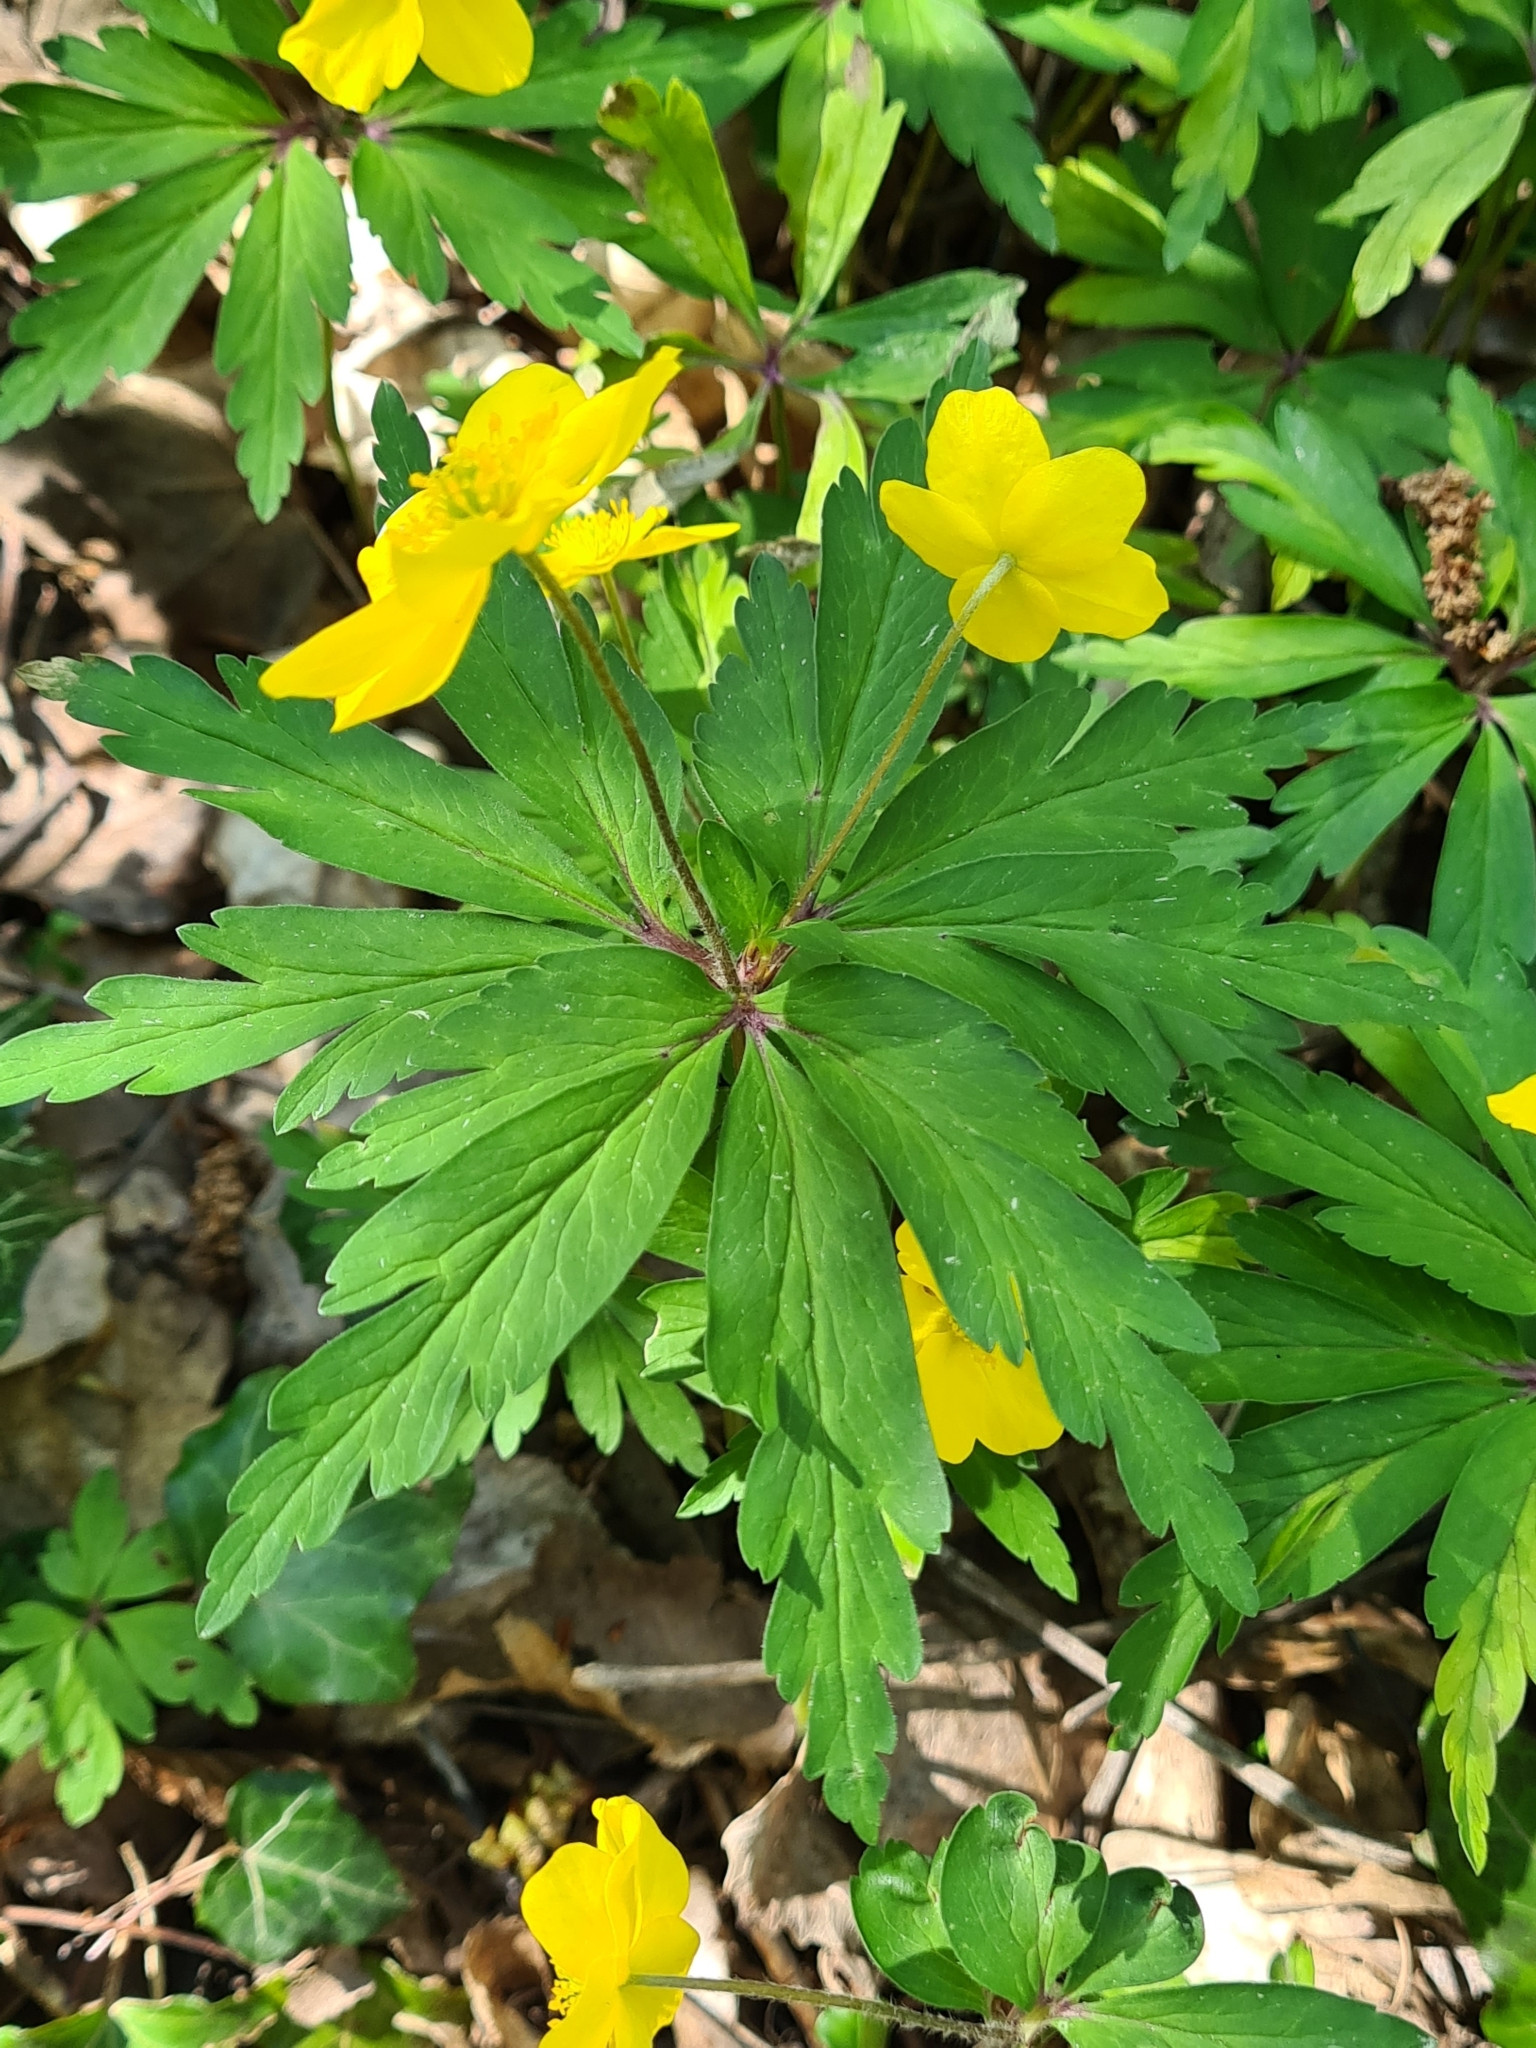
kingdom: Plantae
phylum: Tracheophyta
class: Magnoliopsida
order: Ranunculales
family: Ranunculaceae
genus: Anemone
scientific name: Anemone ranunculoides
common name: Yellow anemone
